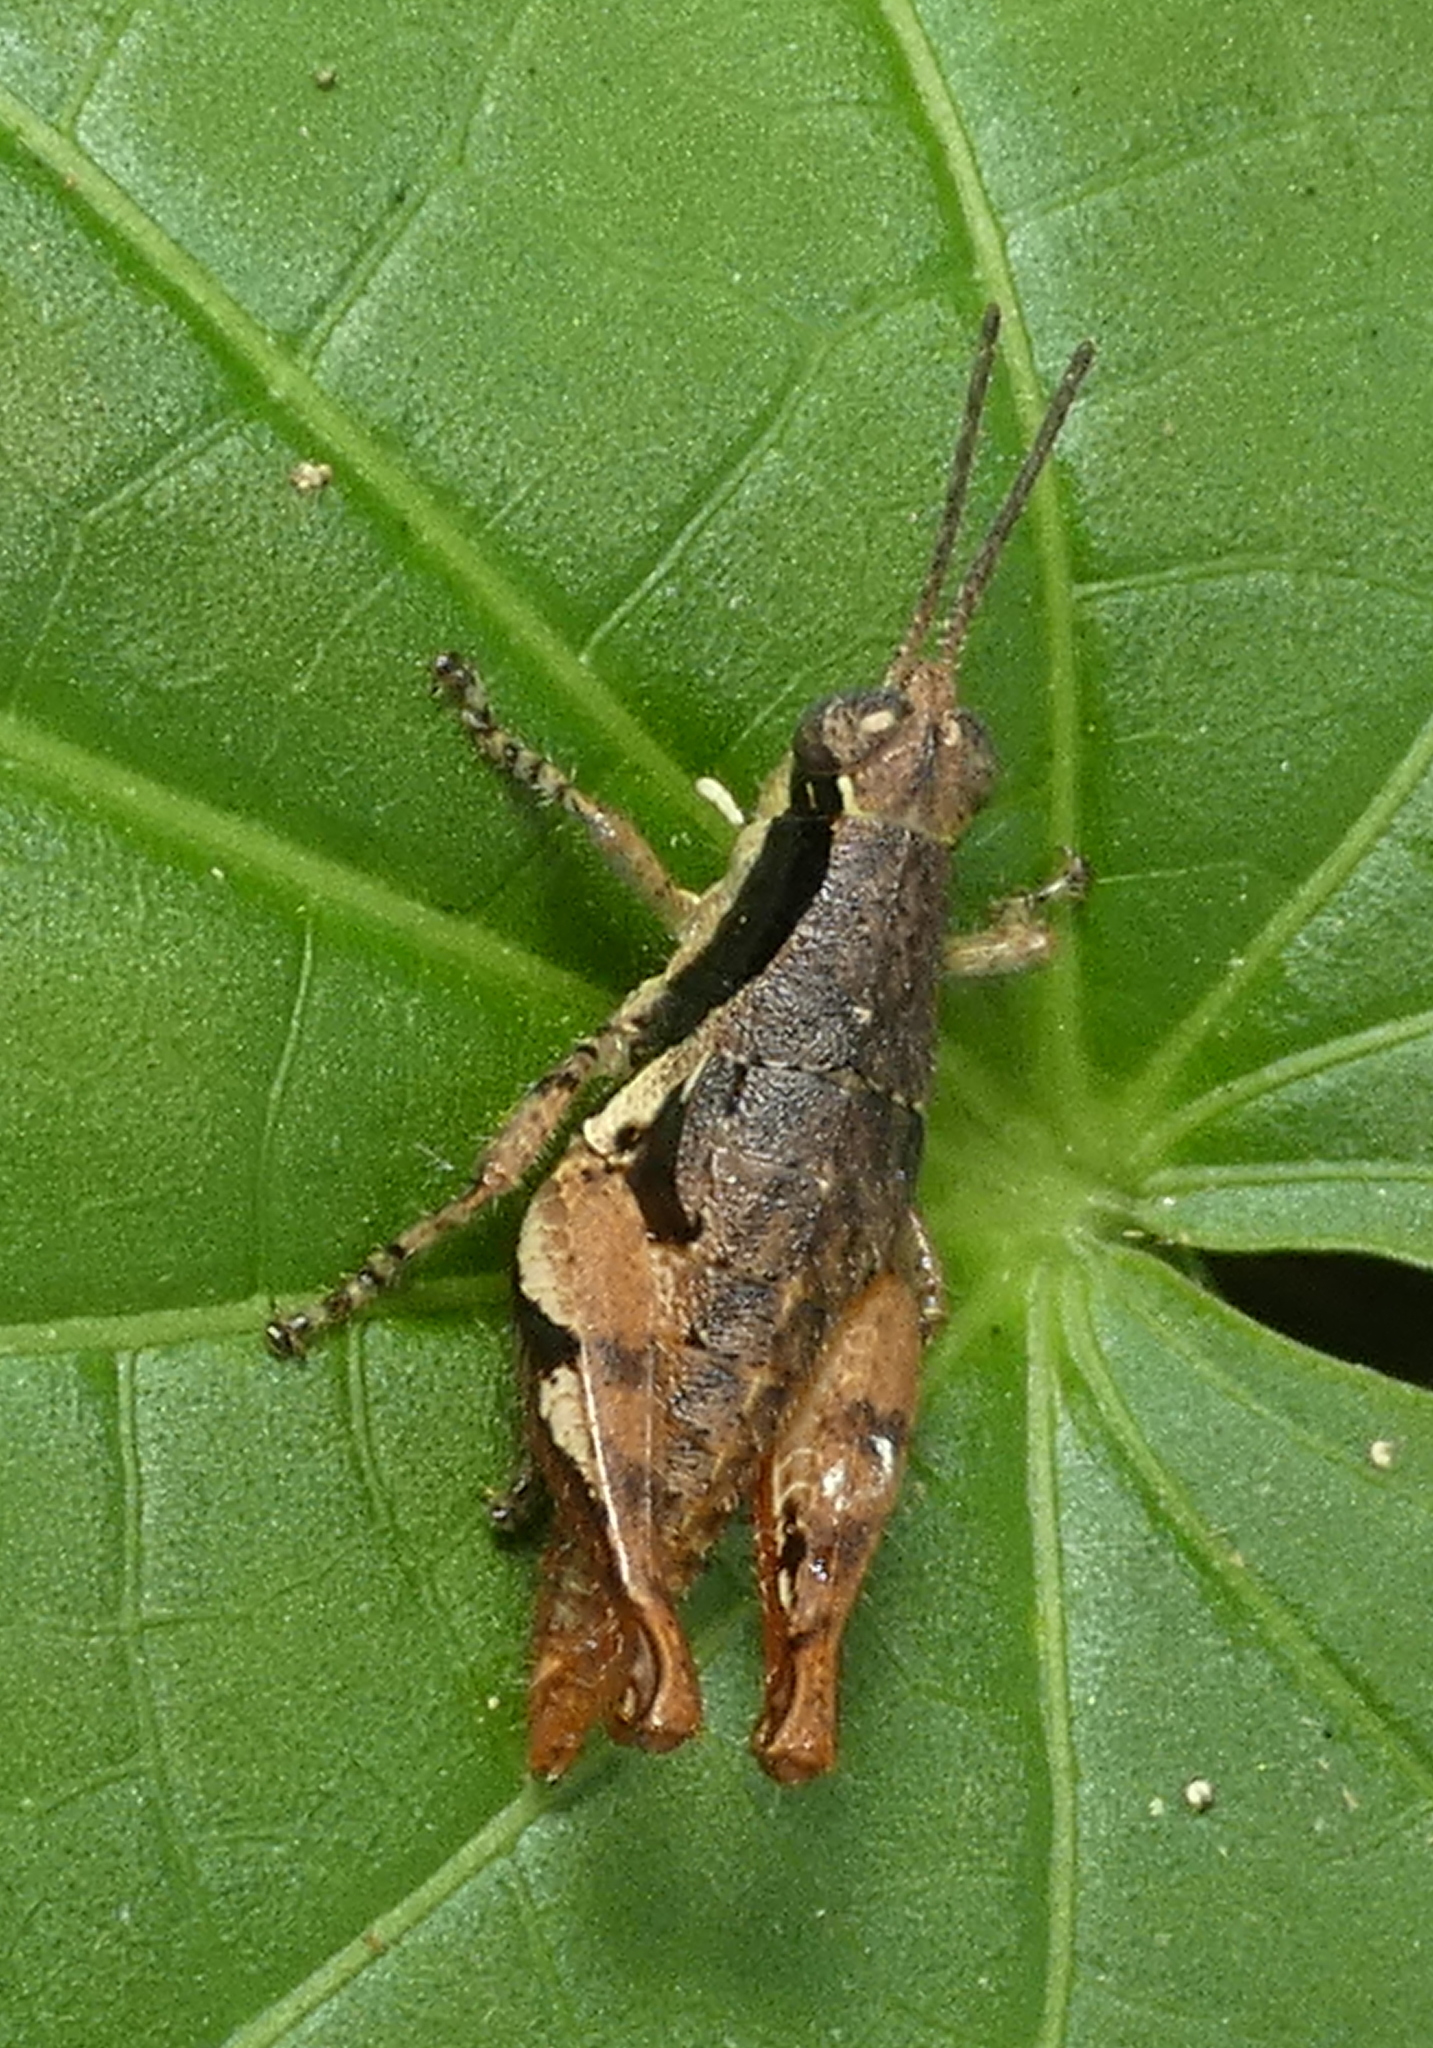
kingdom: Animalia
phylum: Arthropoda
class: Insecta
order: Orthoptera
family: Acrididae
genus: Eujivarus
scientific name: Eujivarus meridionalis
